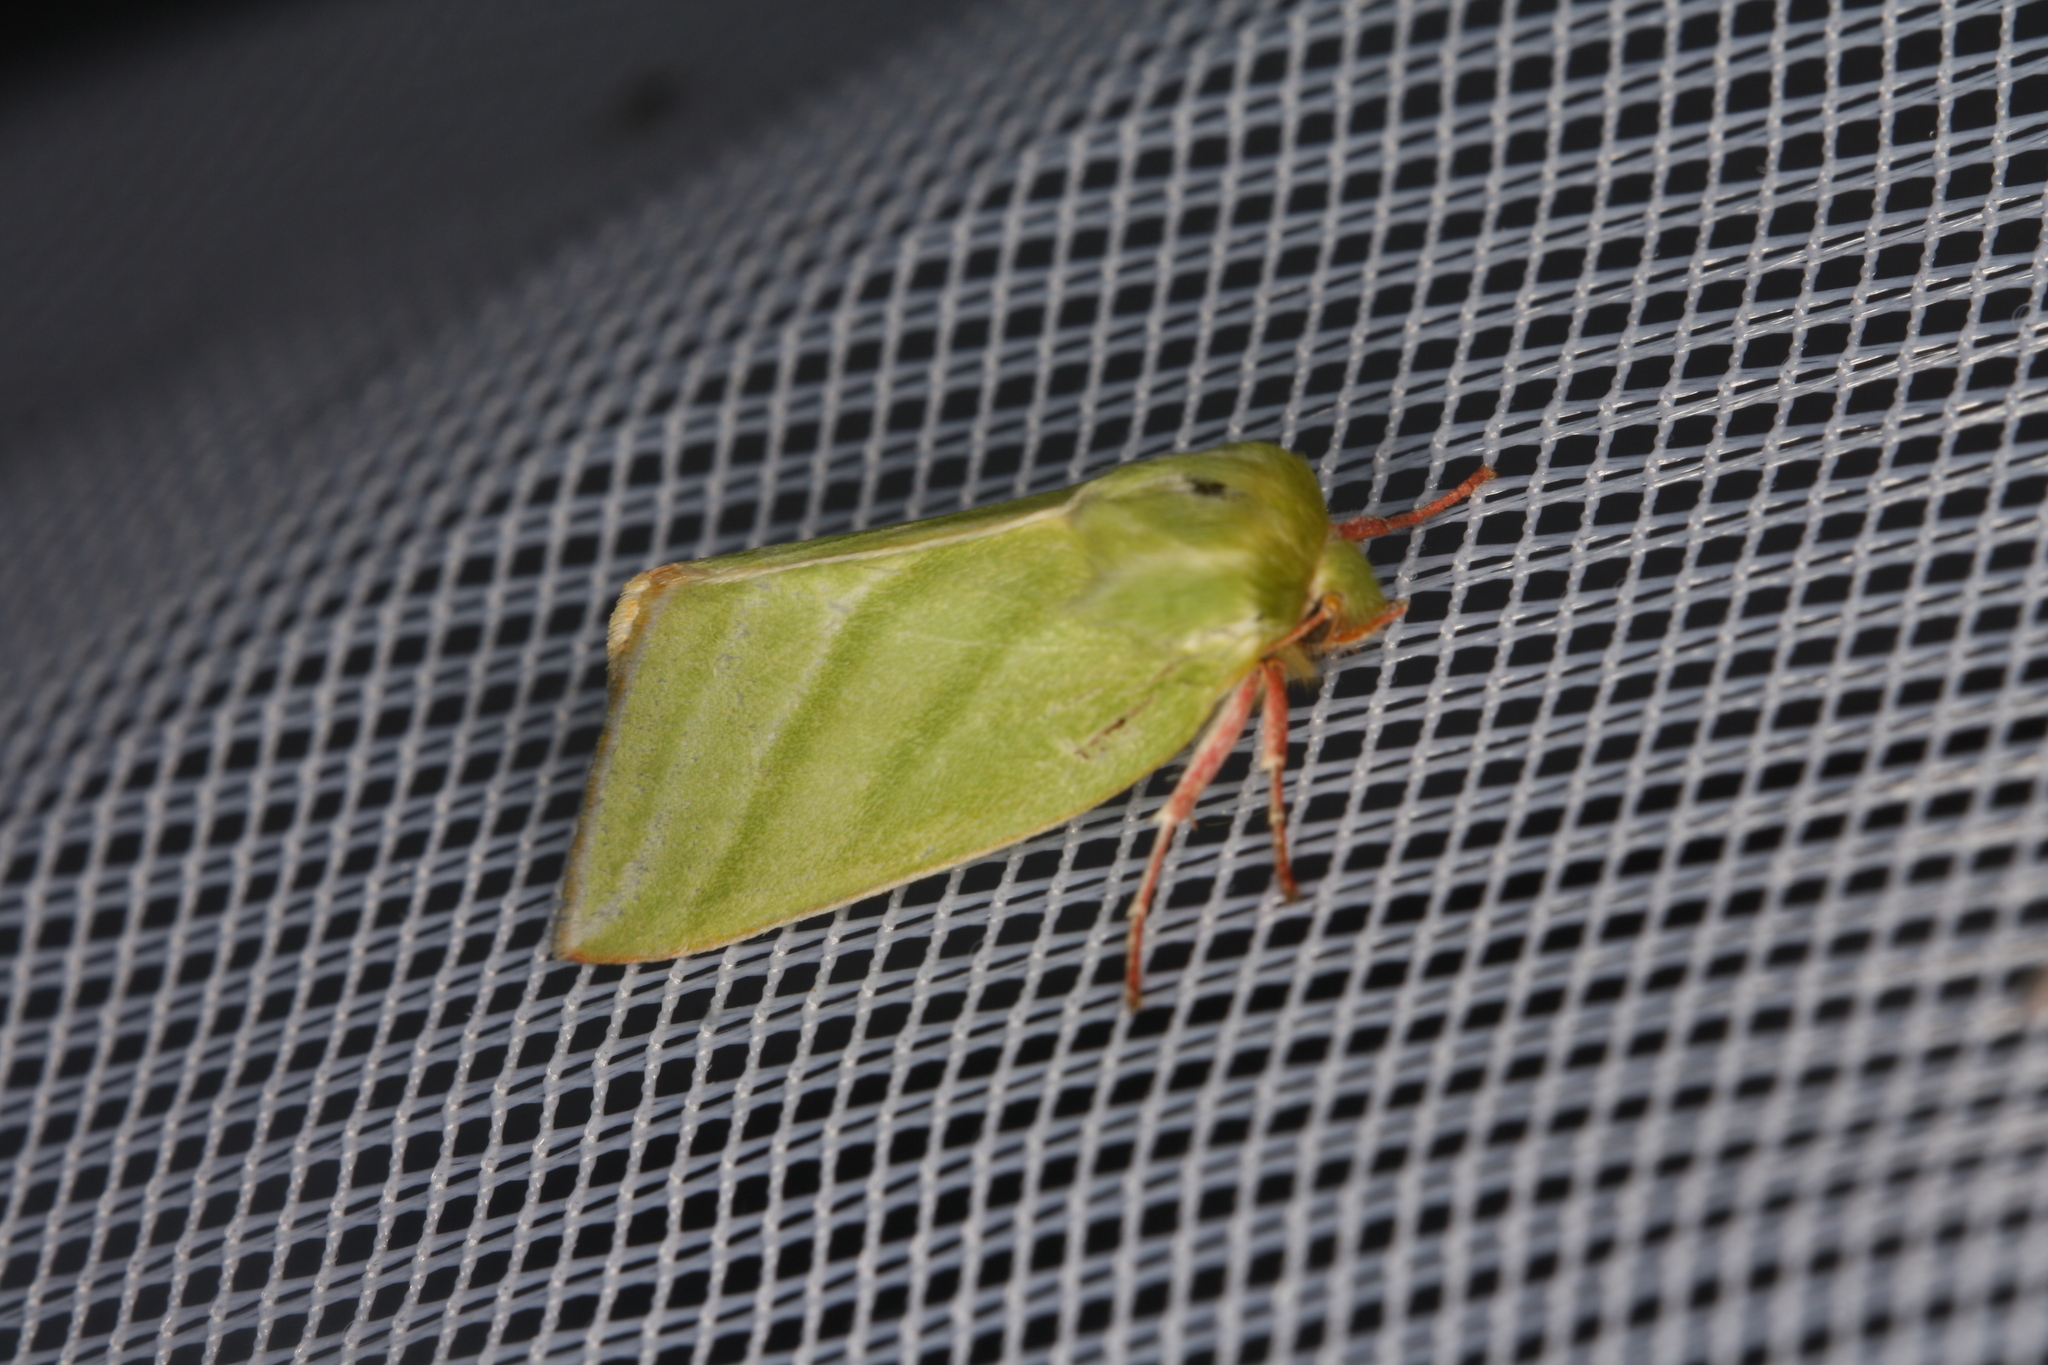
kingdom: Animalia
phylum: Arthropoda
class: Insecta
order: Lepidoptera
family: Nolidae
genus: Pseudoips
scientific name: Pseudoips prasinana
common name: Green silver-lines
